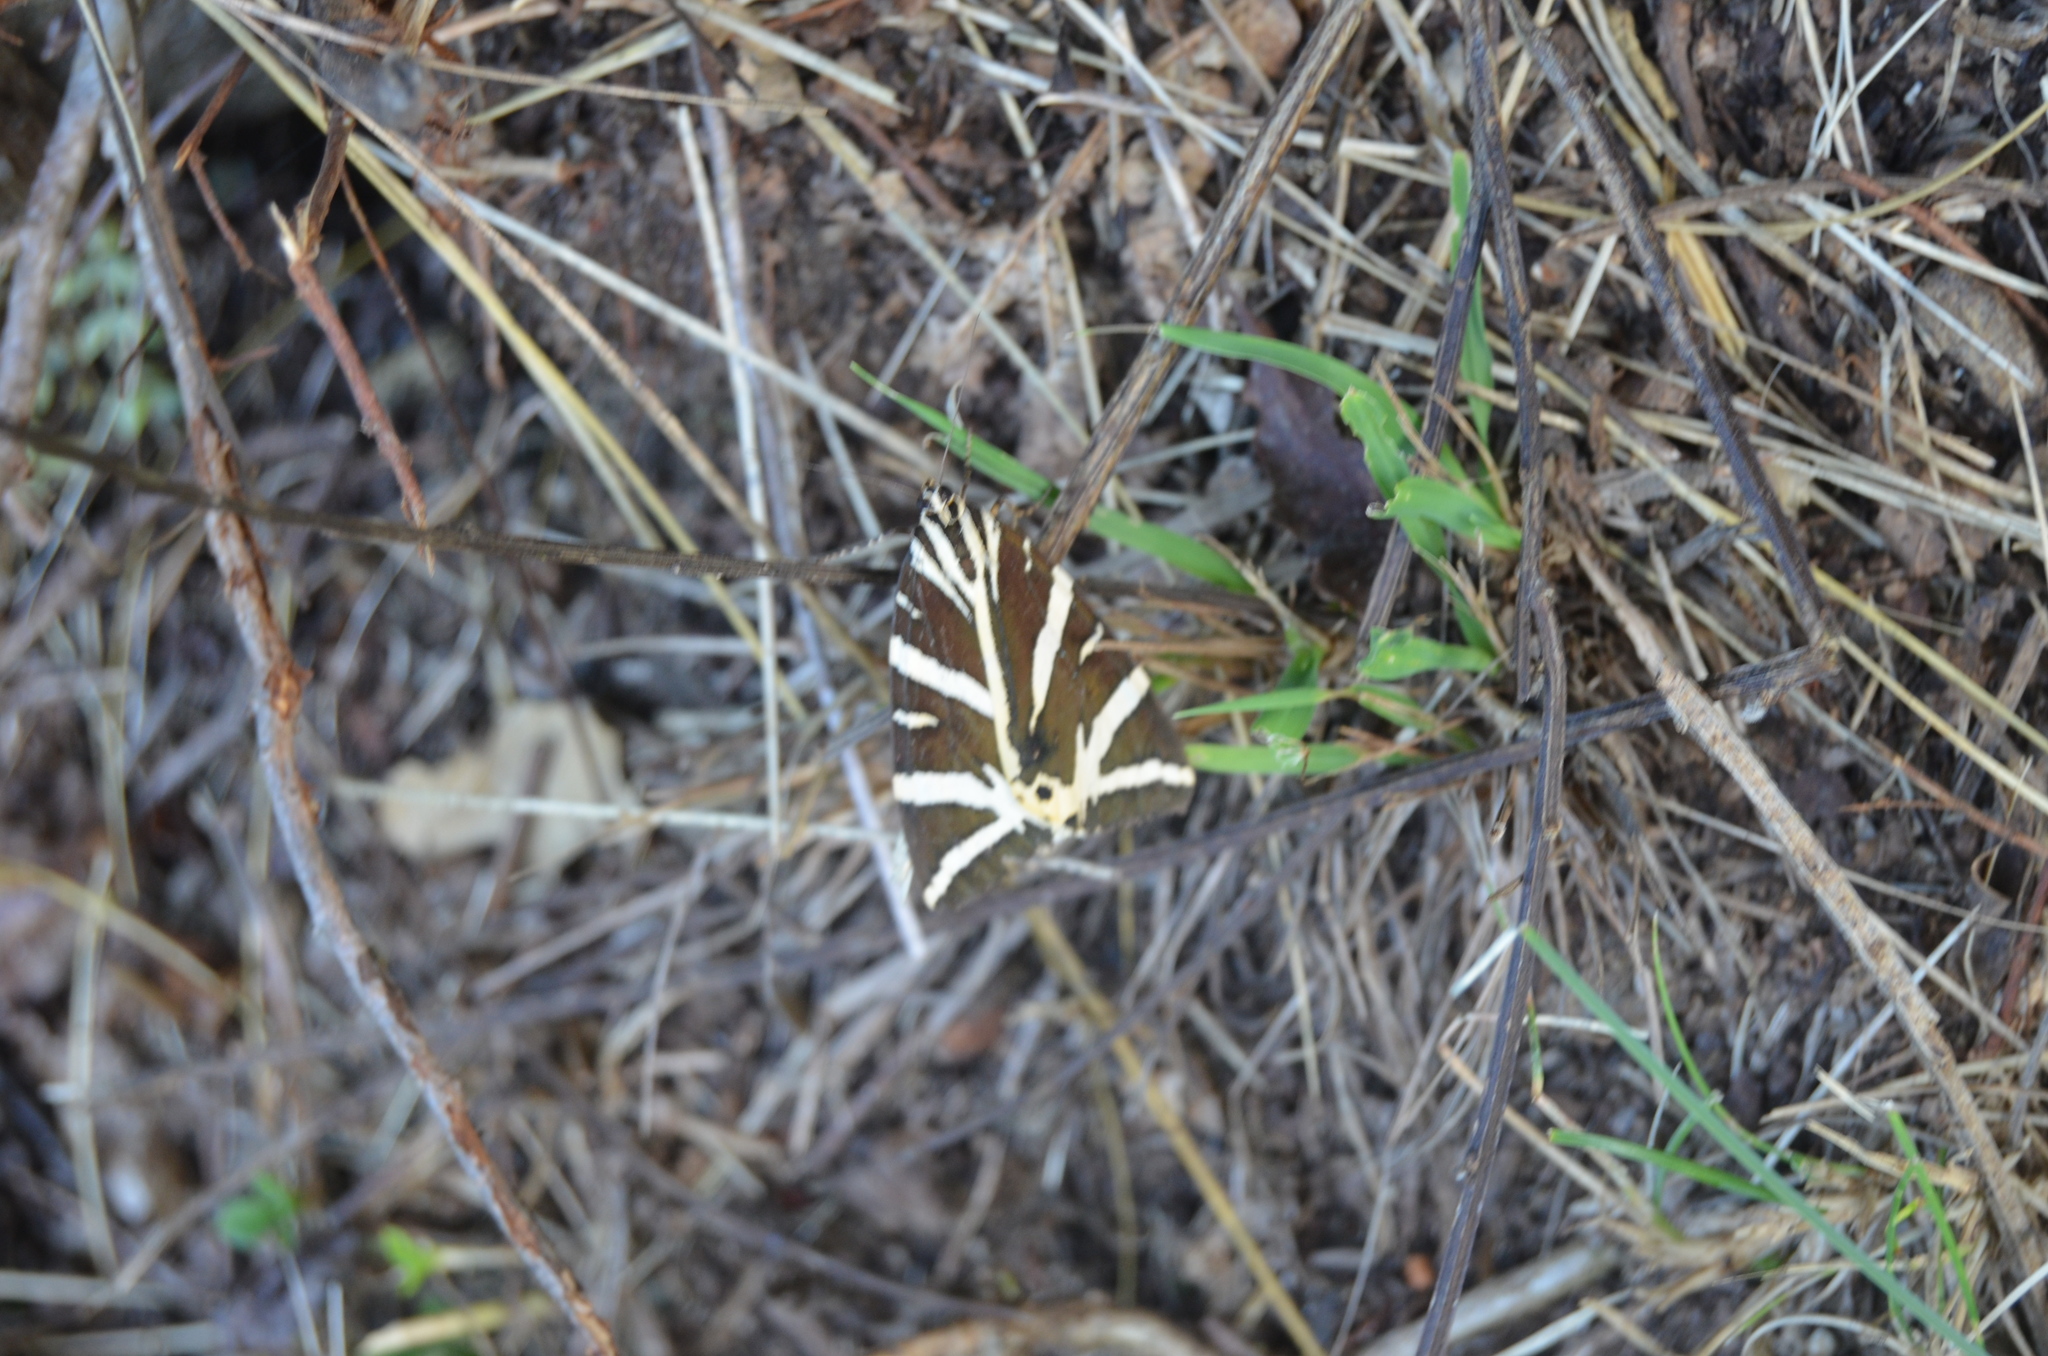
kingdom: Animalia
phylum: Arthropoda
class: Insecta
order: Lepidoptera
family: Erebidae
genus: Euplagia
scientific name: Euplagia quadripunctaria
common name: Jersey tiger
